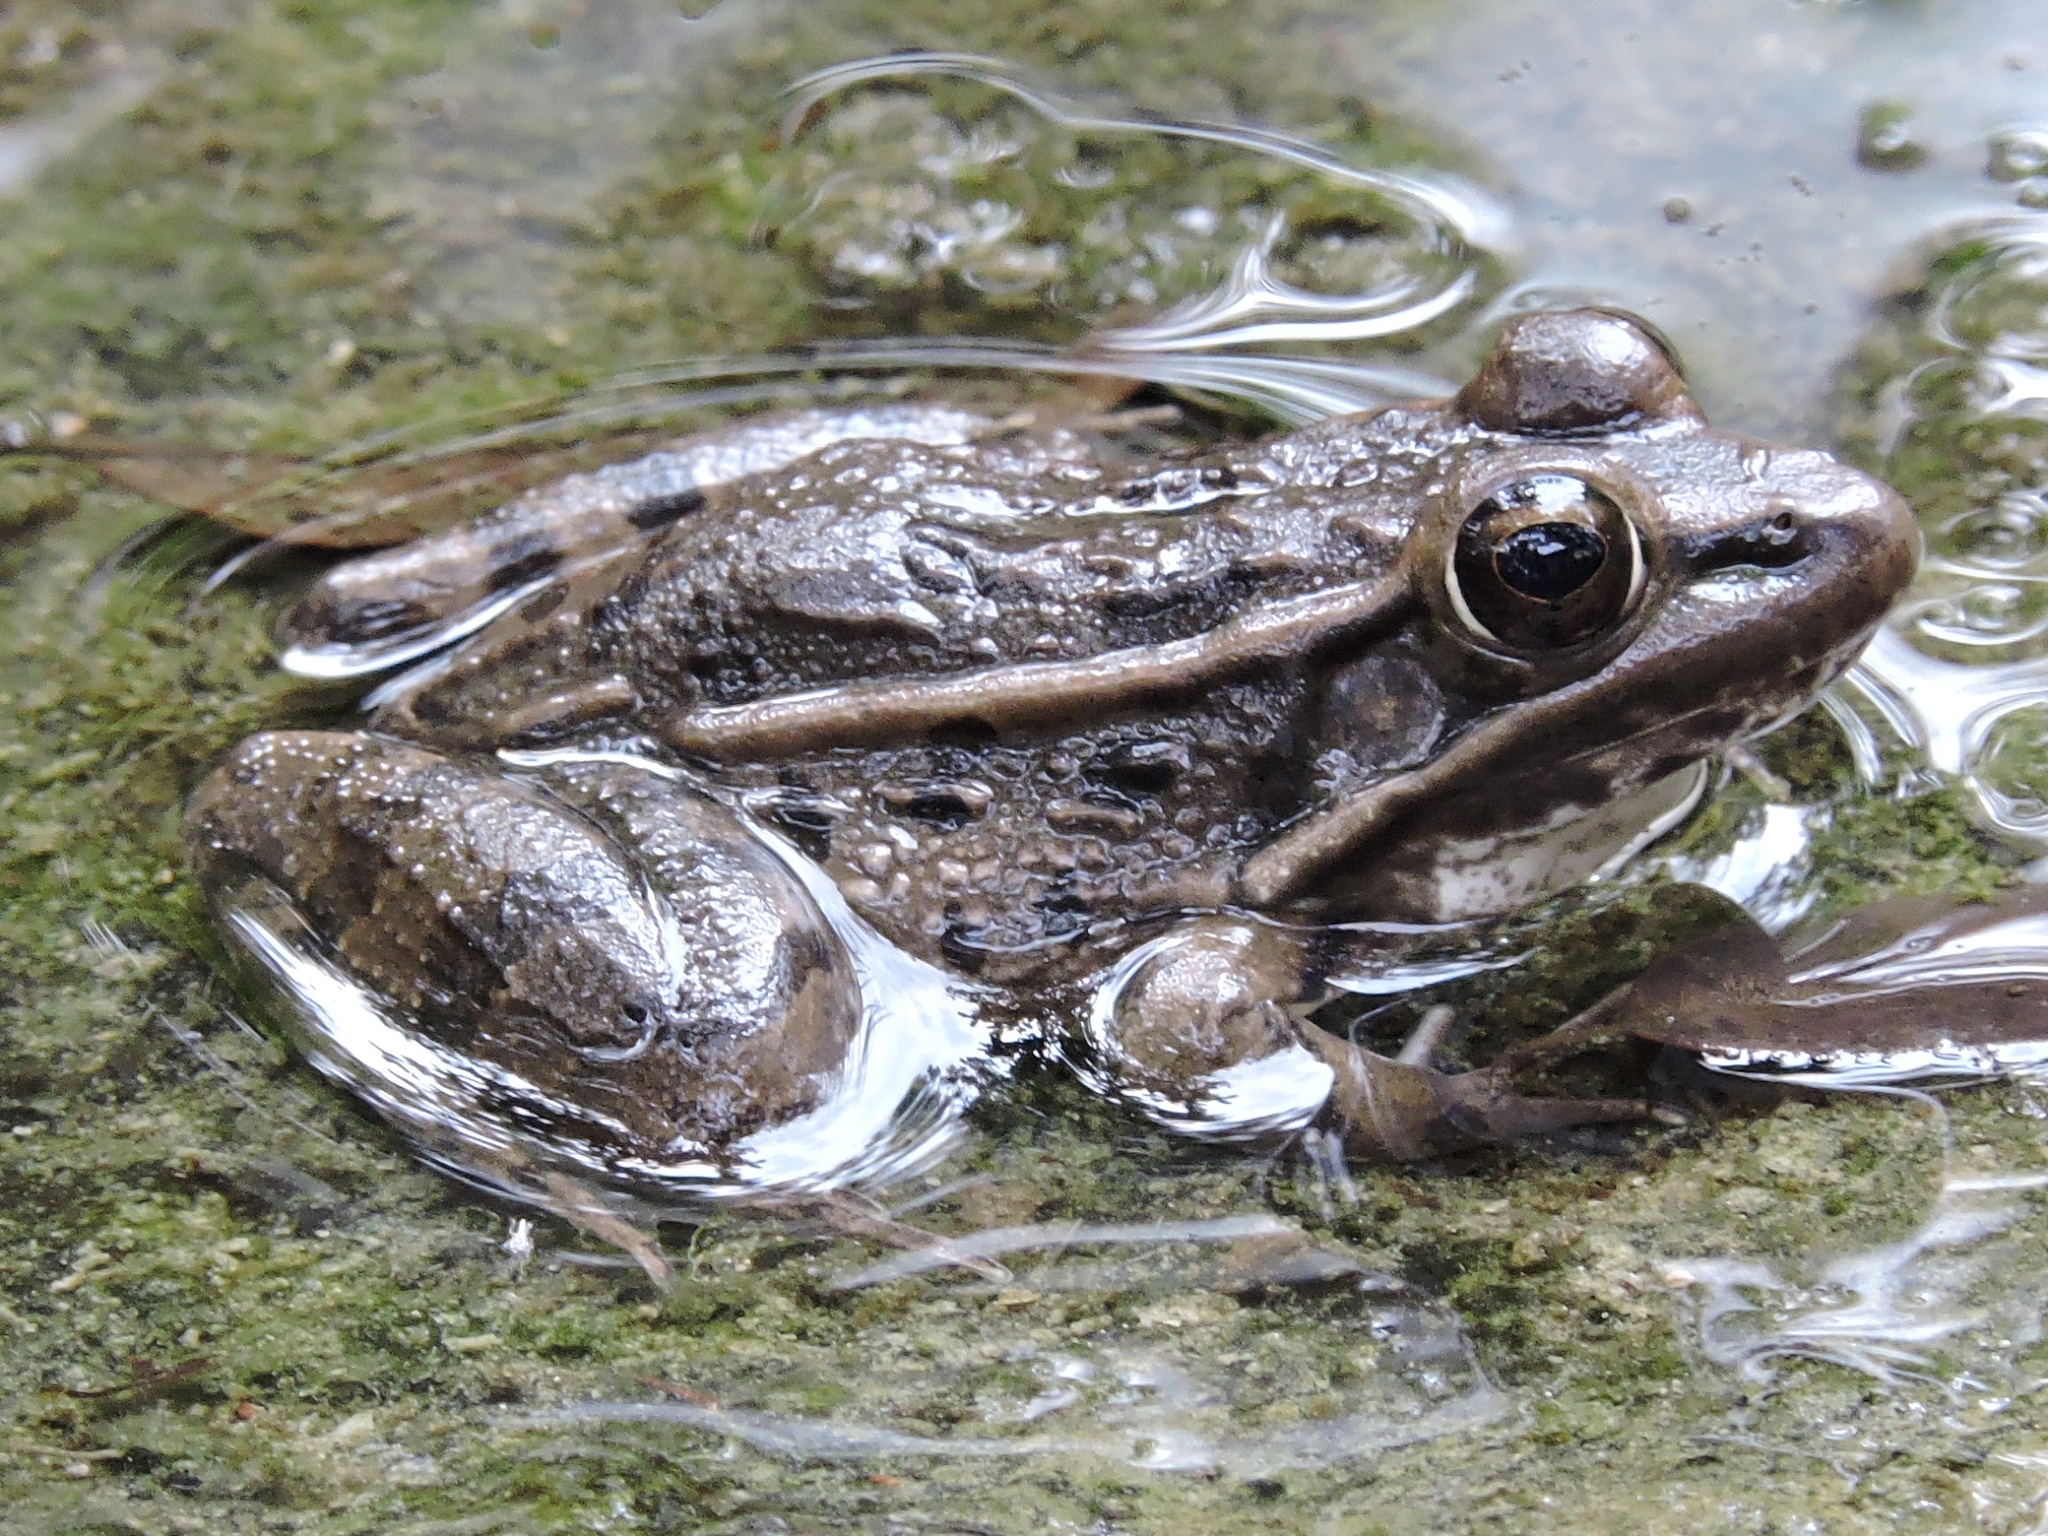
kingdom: Animalia
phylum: Chordata
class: Amphibia
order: Anura
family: Ranidae
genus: Lithobates
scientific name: Lithobates berlandieri
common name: Rio grande leopard frog
